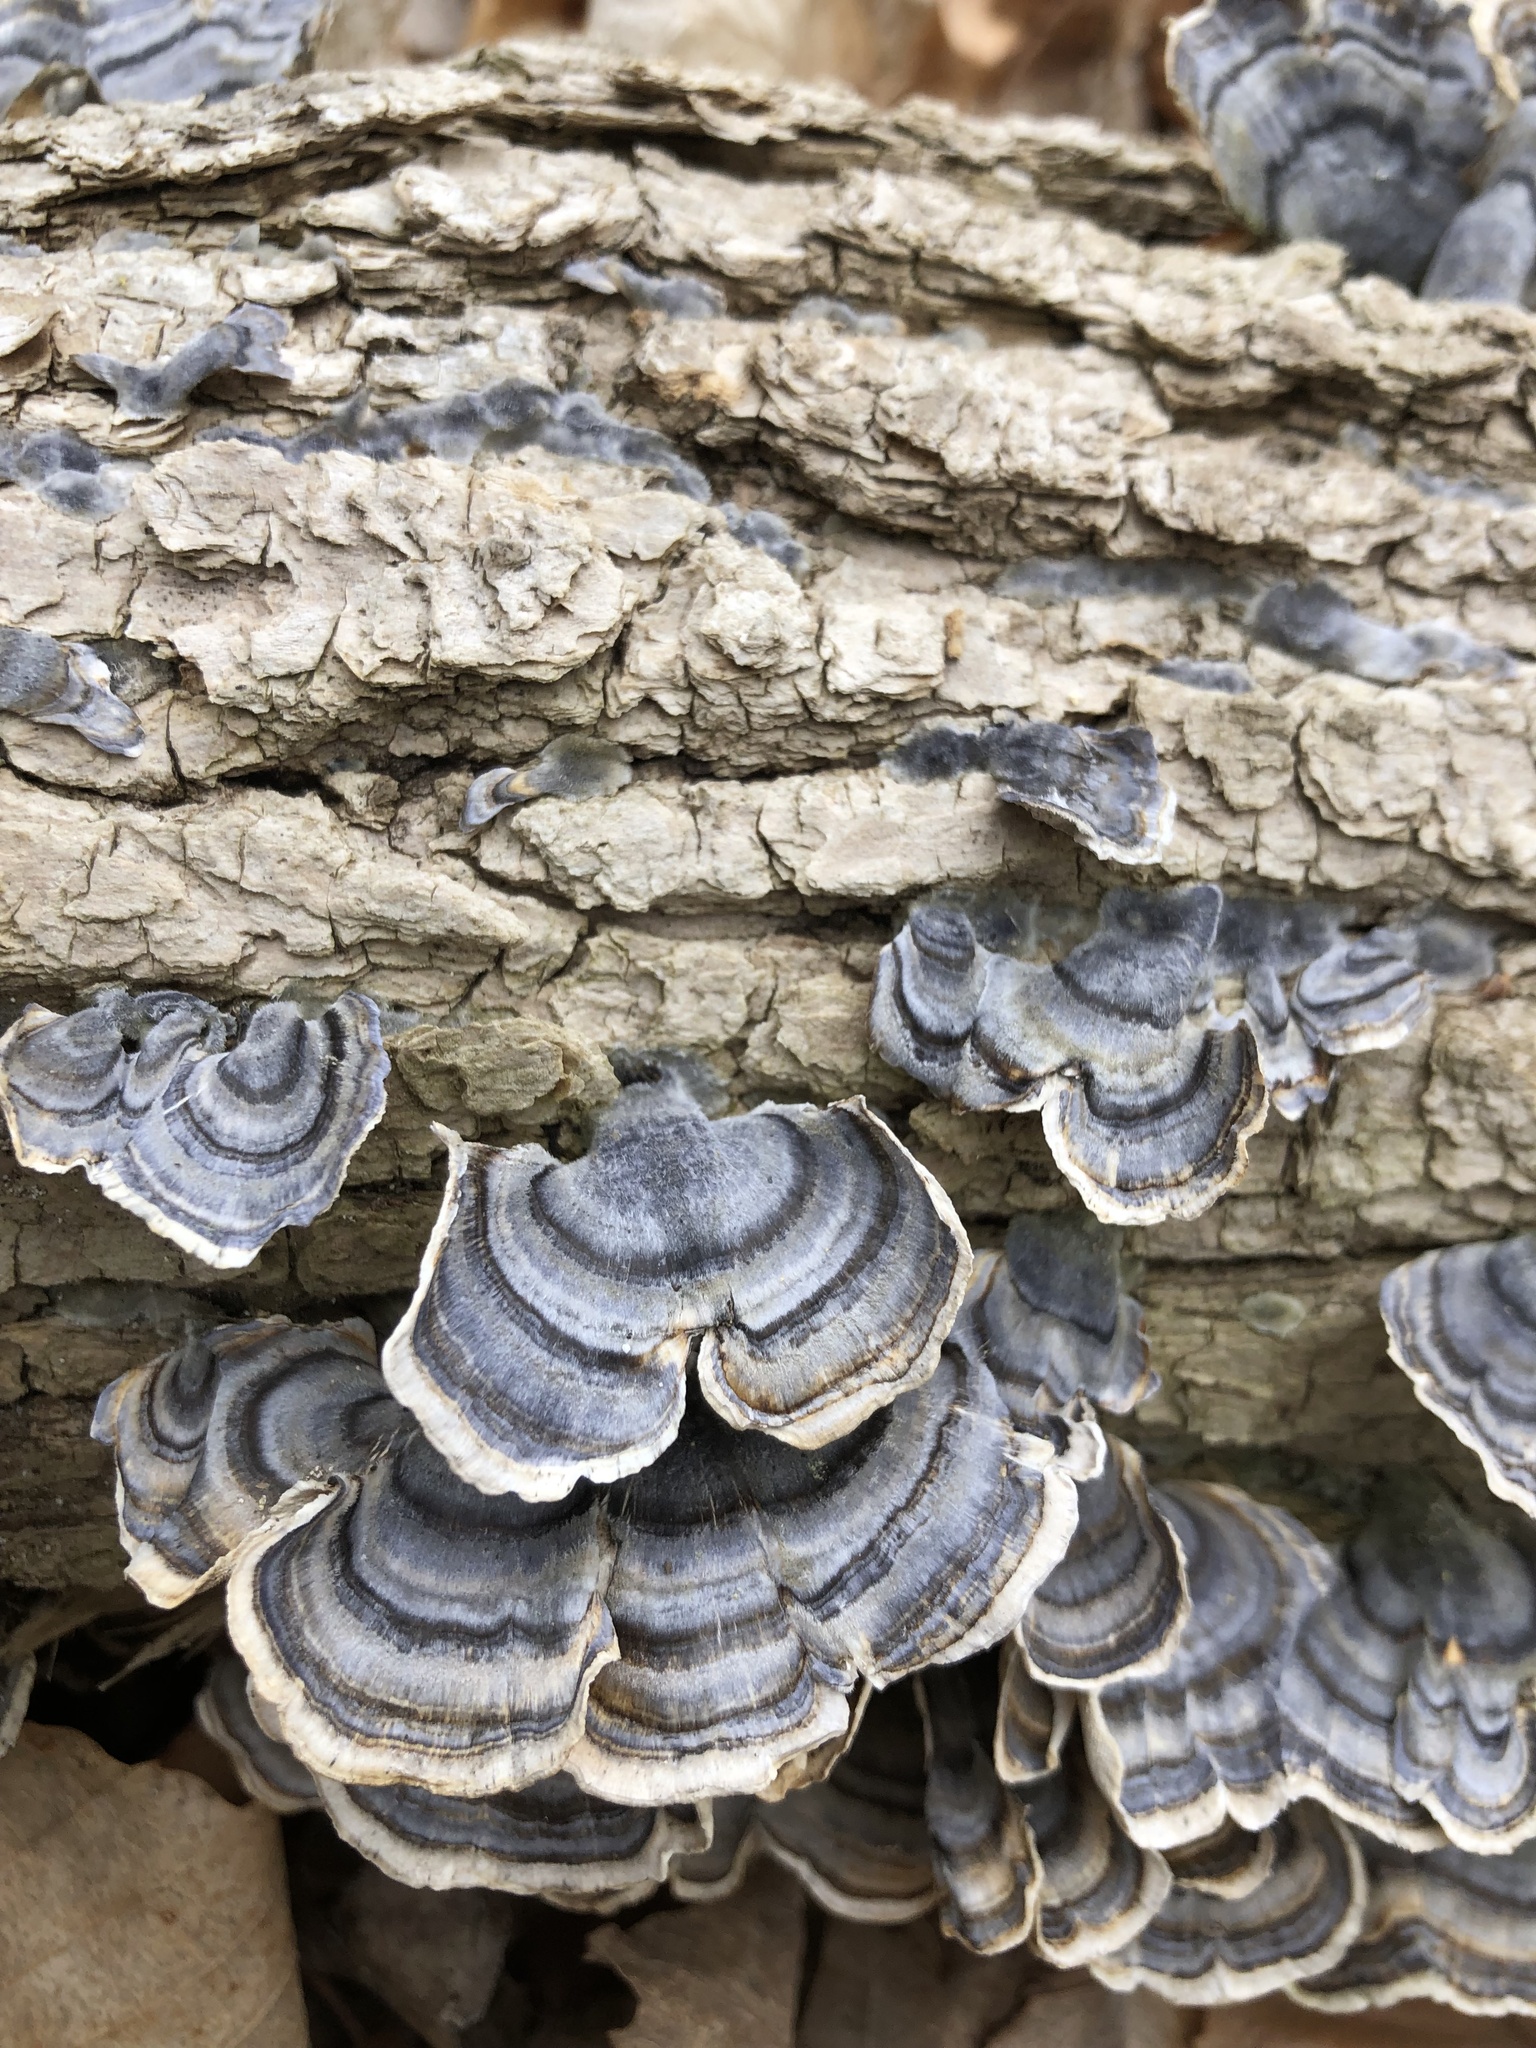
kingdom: Fungi
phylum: Basidiomycota
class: Agaricomycetes
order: Polyporales
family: Polyporaceae
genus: Trametes
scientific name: Trametes versicolor
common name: Turkeytail
